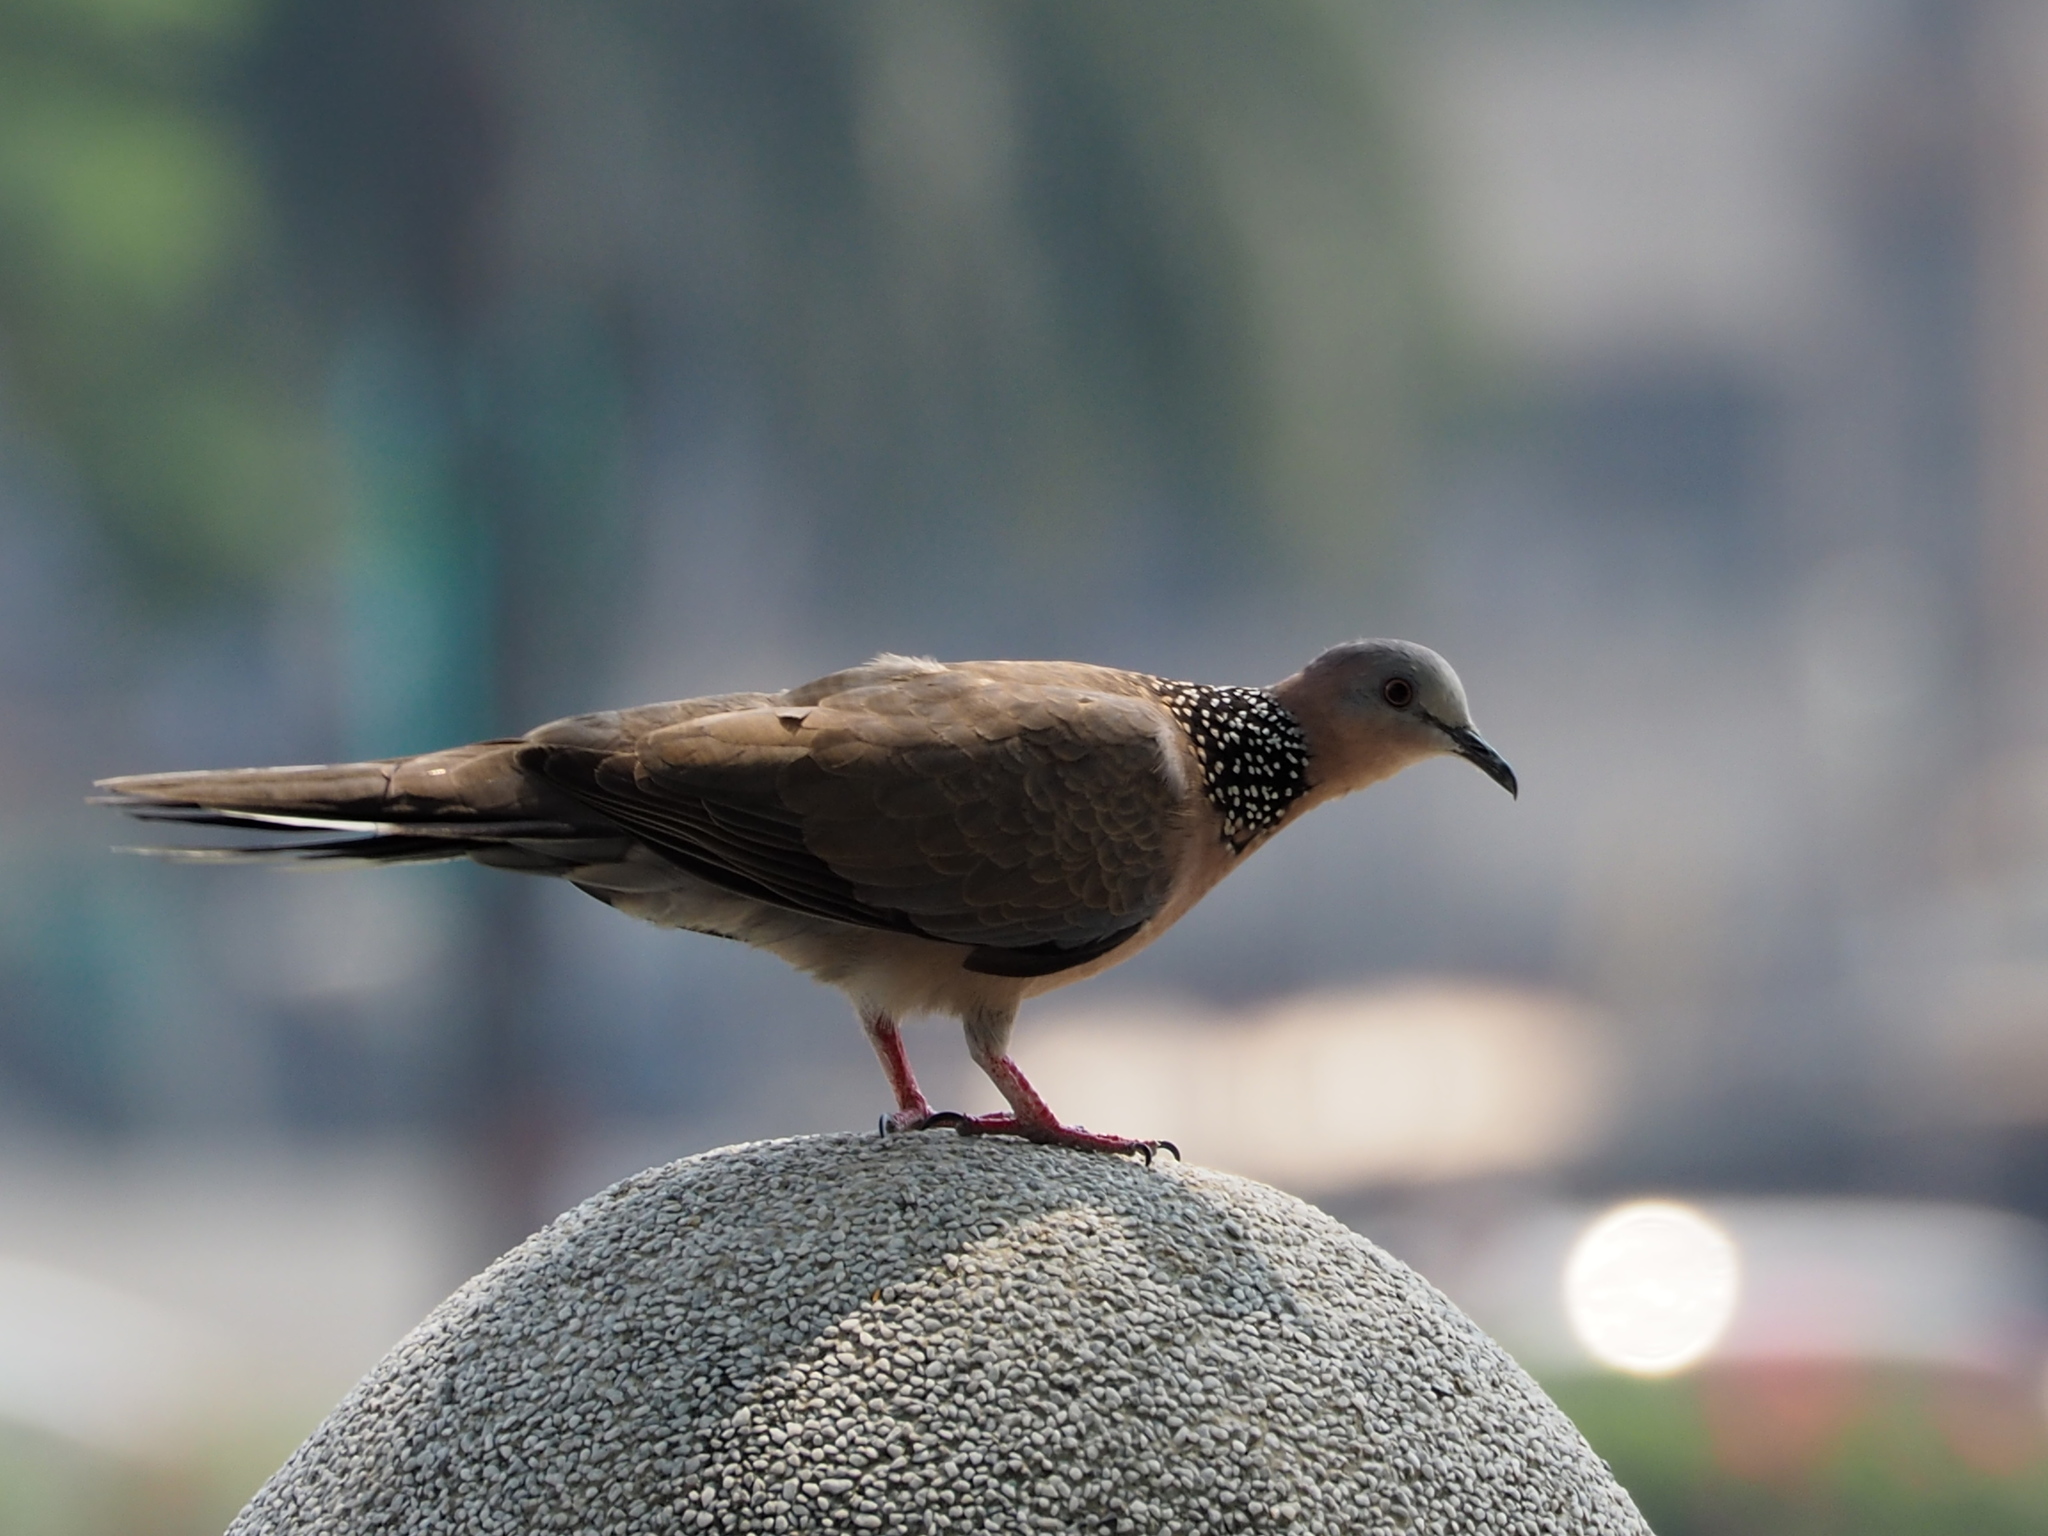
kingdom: Animalia
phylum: Chordata
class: Aves
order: Columbiformes
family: Columbidae
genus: Spilopelia
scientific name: Spilopelia chinensis
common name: Spotted dove
